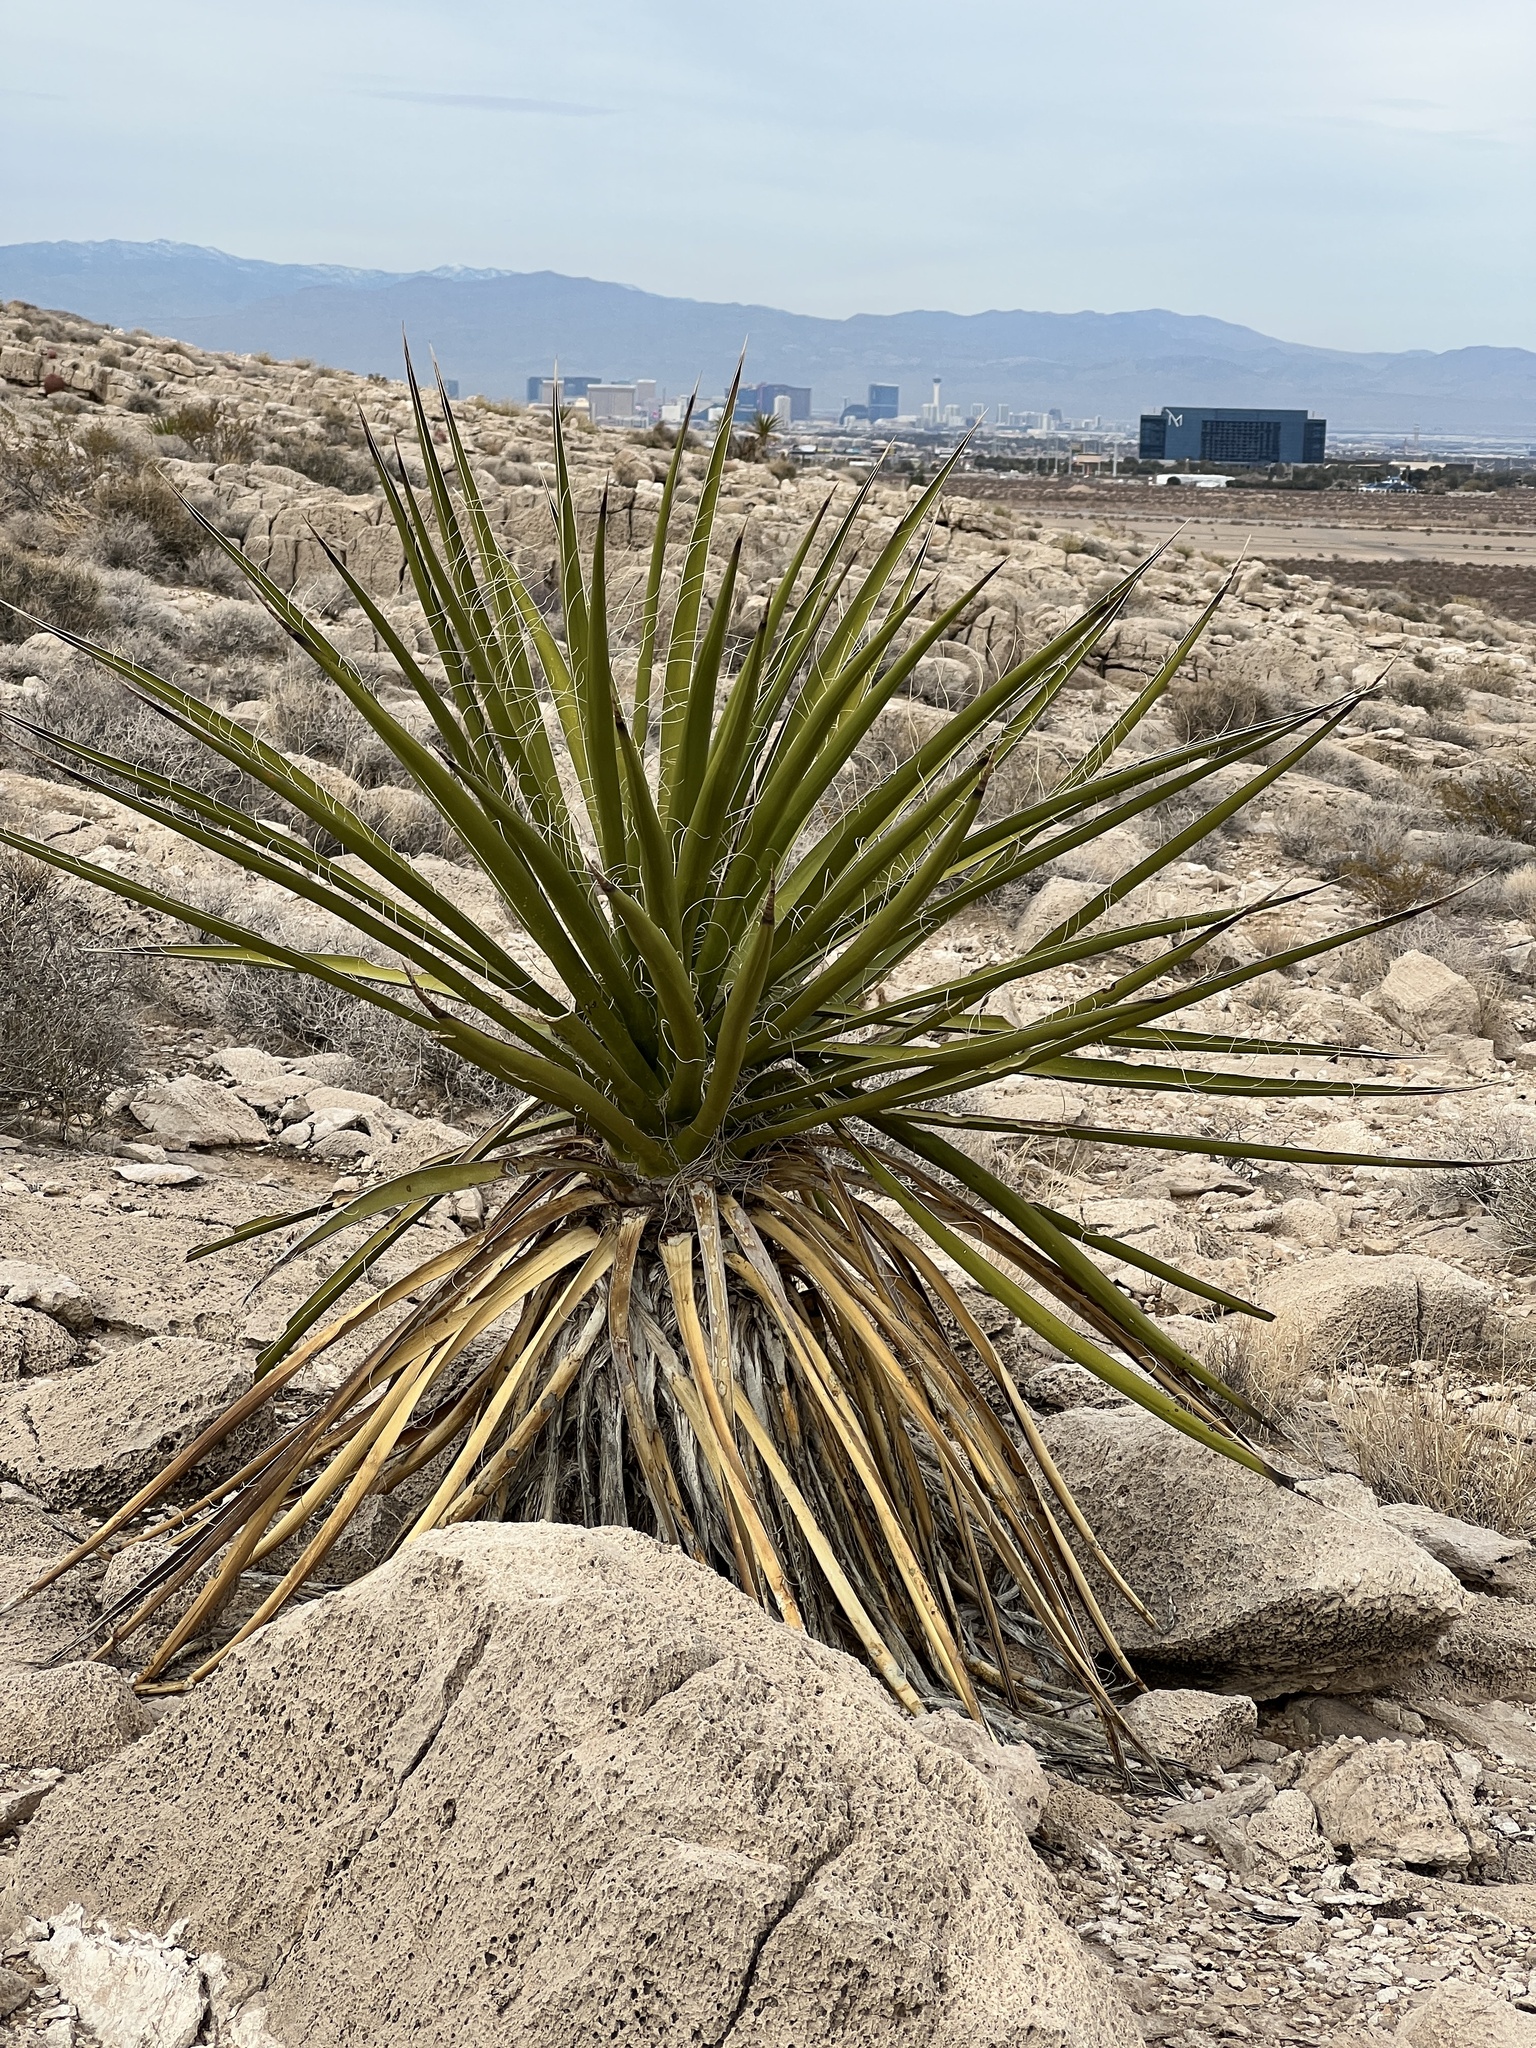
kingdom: Plantae
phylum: Tracheophyta
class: Liliopsida
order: Asparagales
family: Asparagaceae
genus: Yucca
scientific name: Yucca schidigera
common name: Mojave yucca
